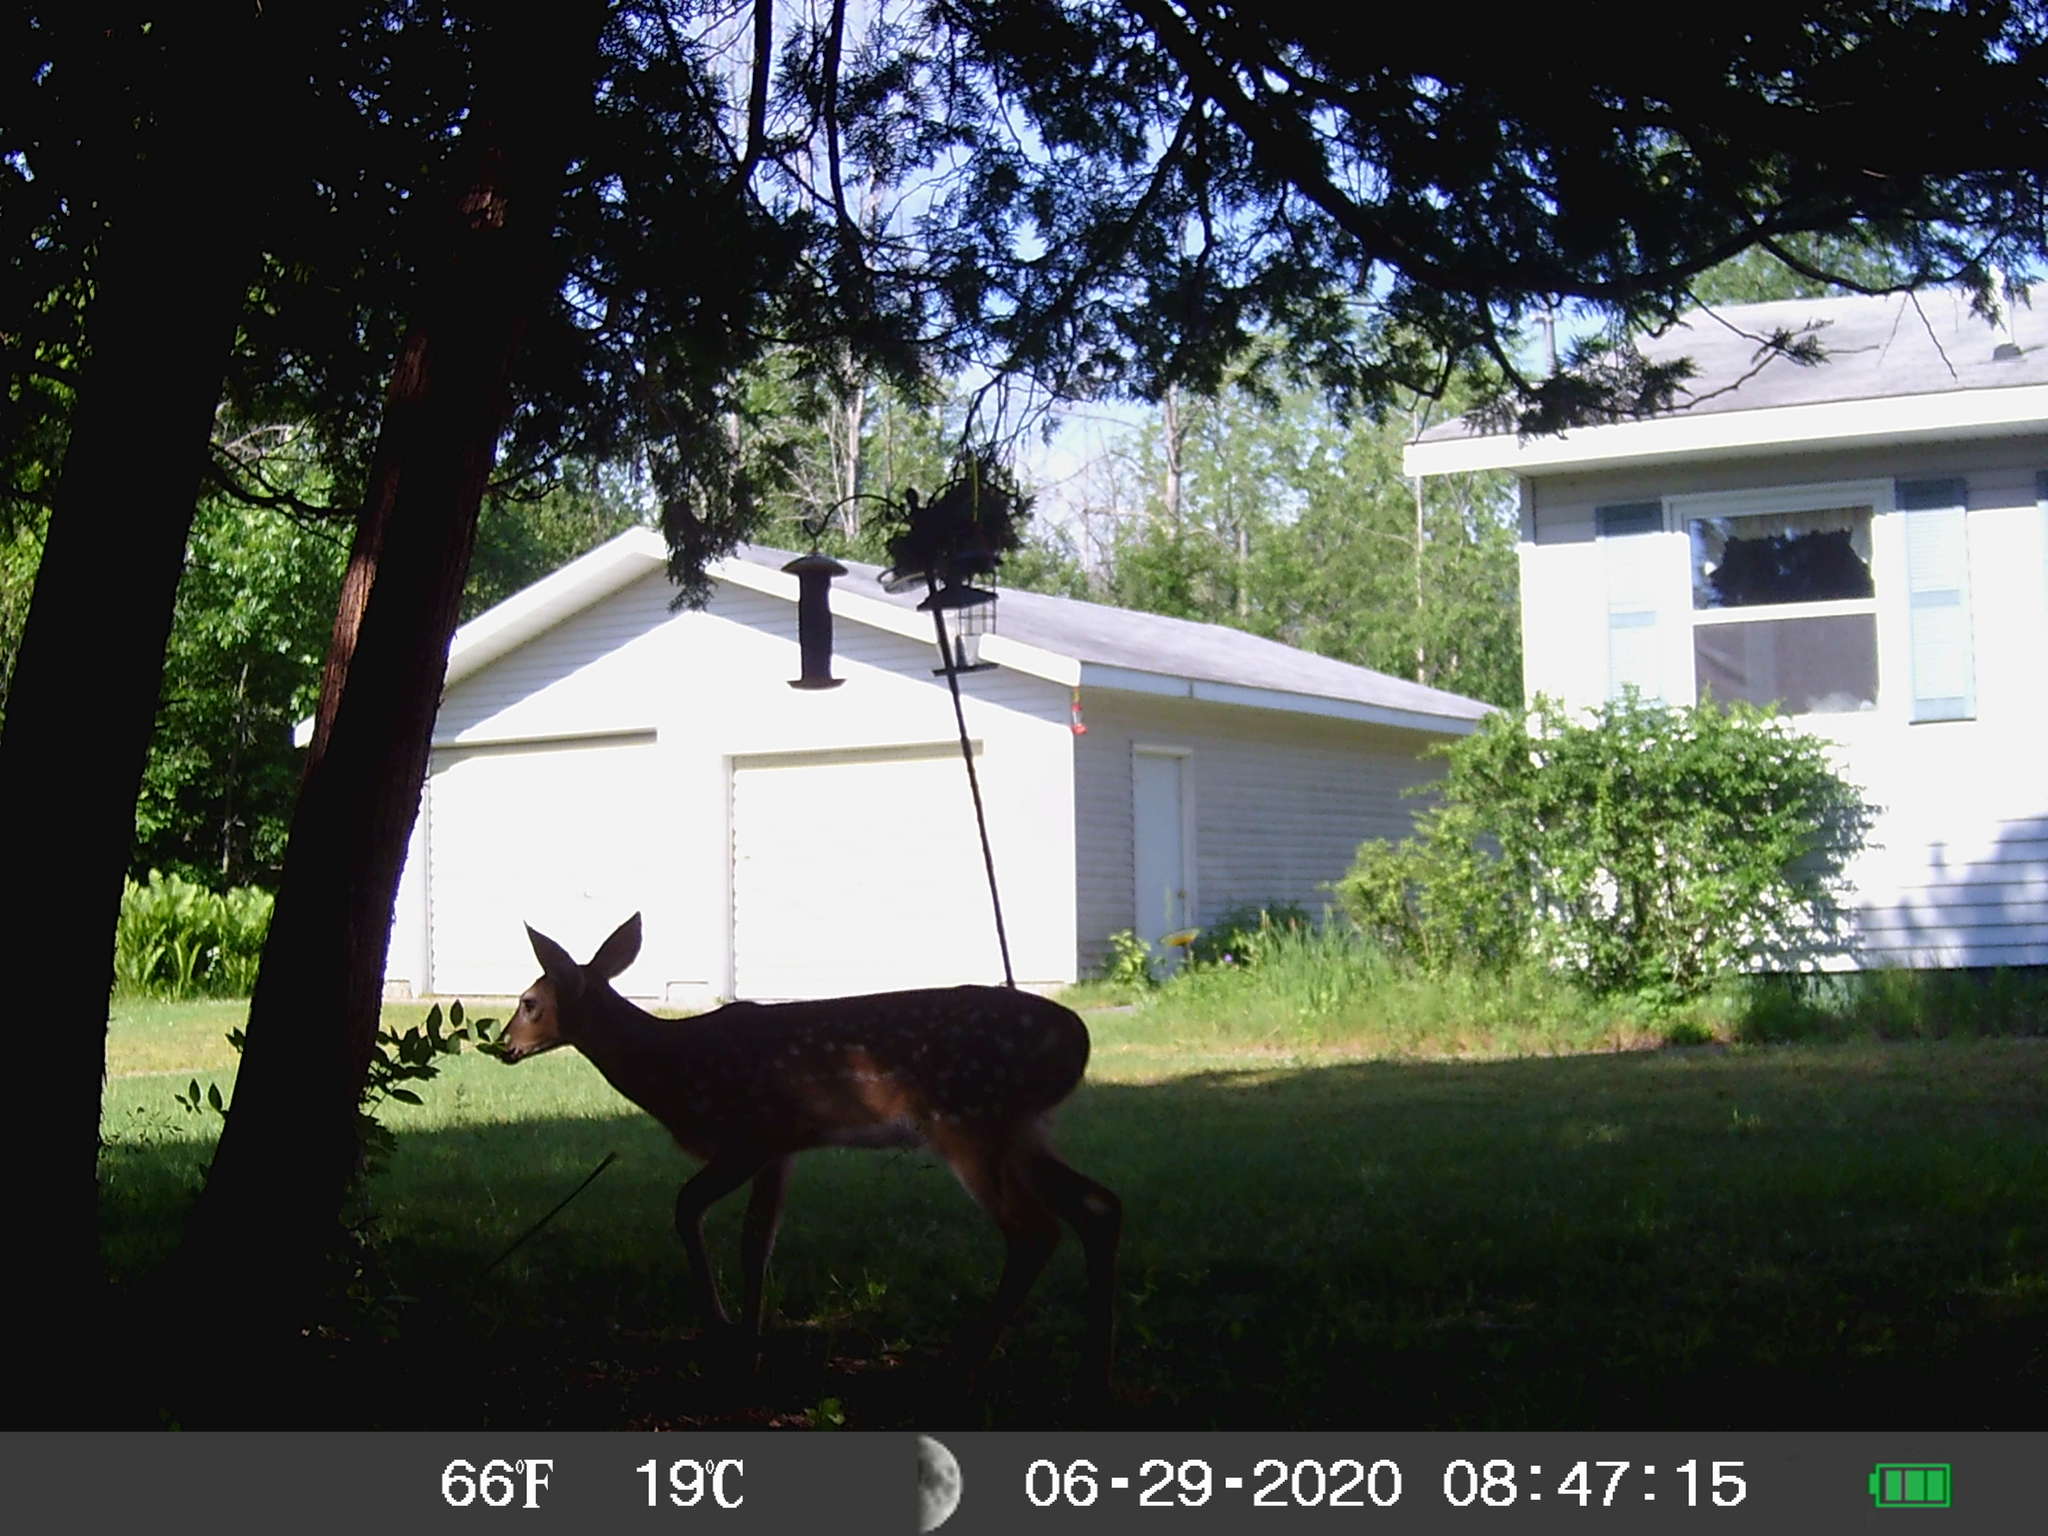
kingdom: Animalia
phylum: Chordata
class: Mammalia
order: Artiodactyla
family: Cervidae
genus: Odocoileus
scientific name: Odocoileus virginianus
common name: White-tailed deer
